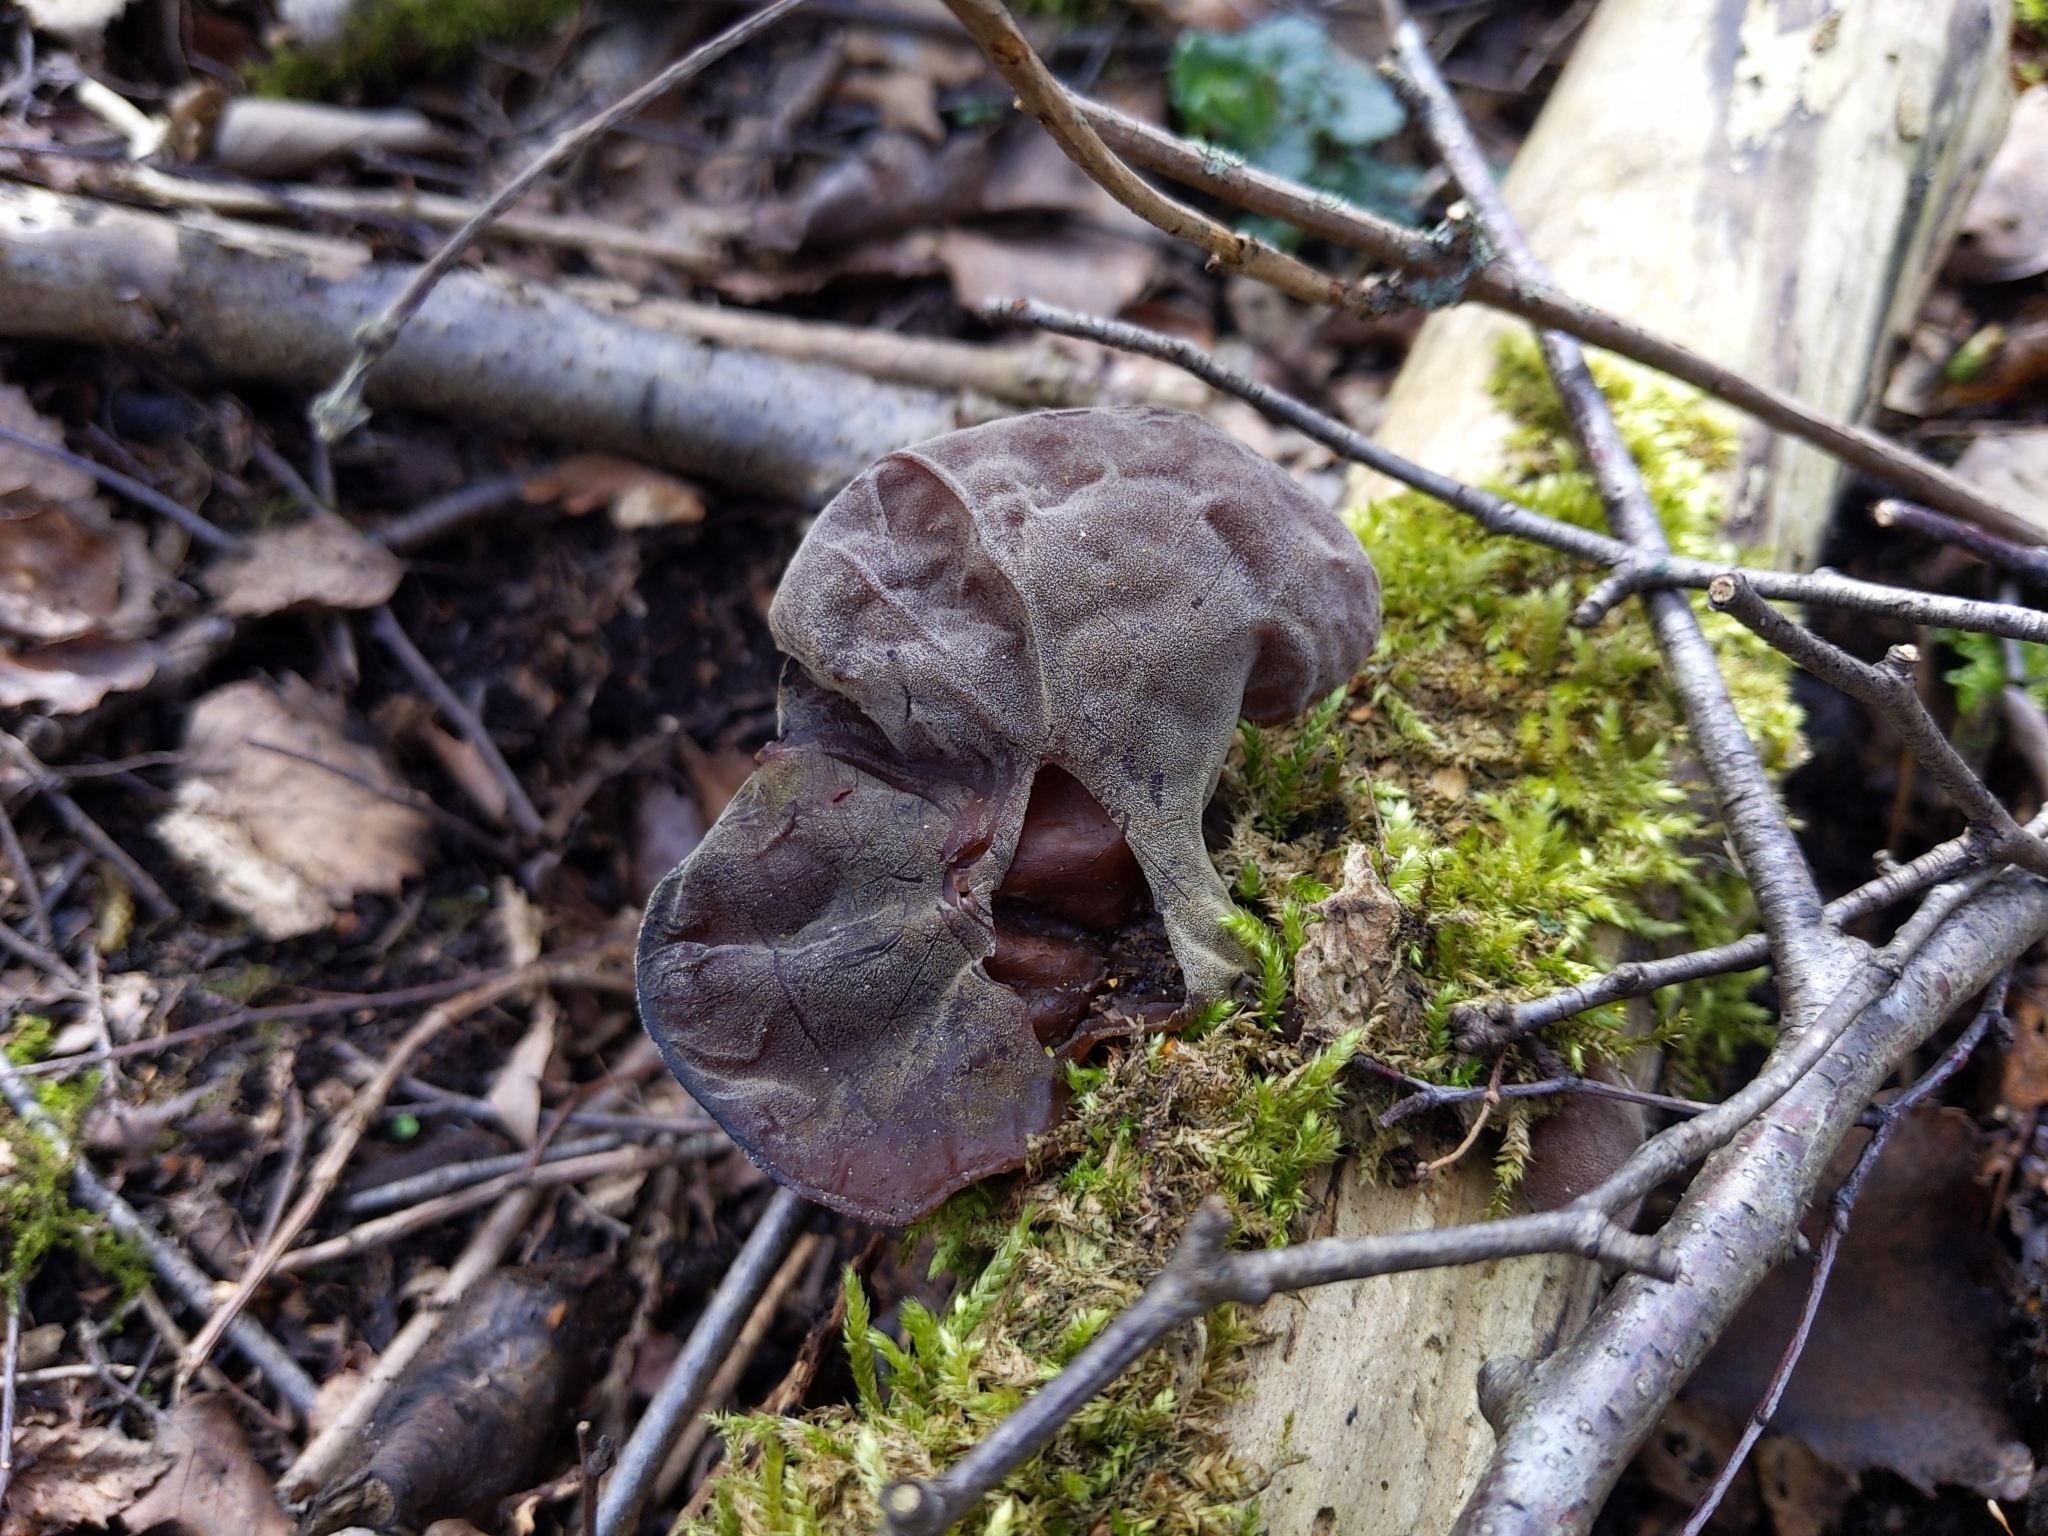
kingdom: Fungi
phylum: Basidiomycota
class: Agaricomycetes
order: Auriculariales
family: Auriculariaceae
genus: Auricularia
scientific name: Auricularia auricula-judae
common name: Jelly ear
